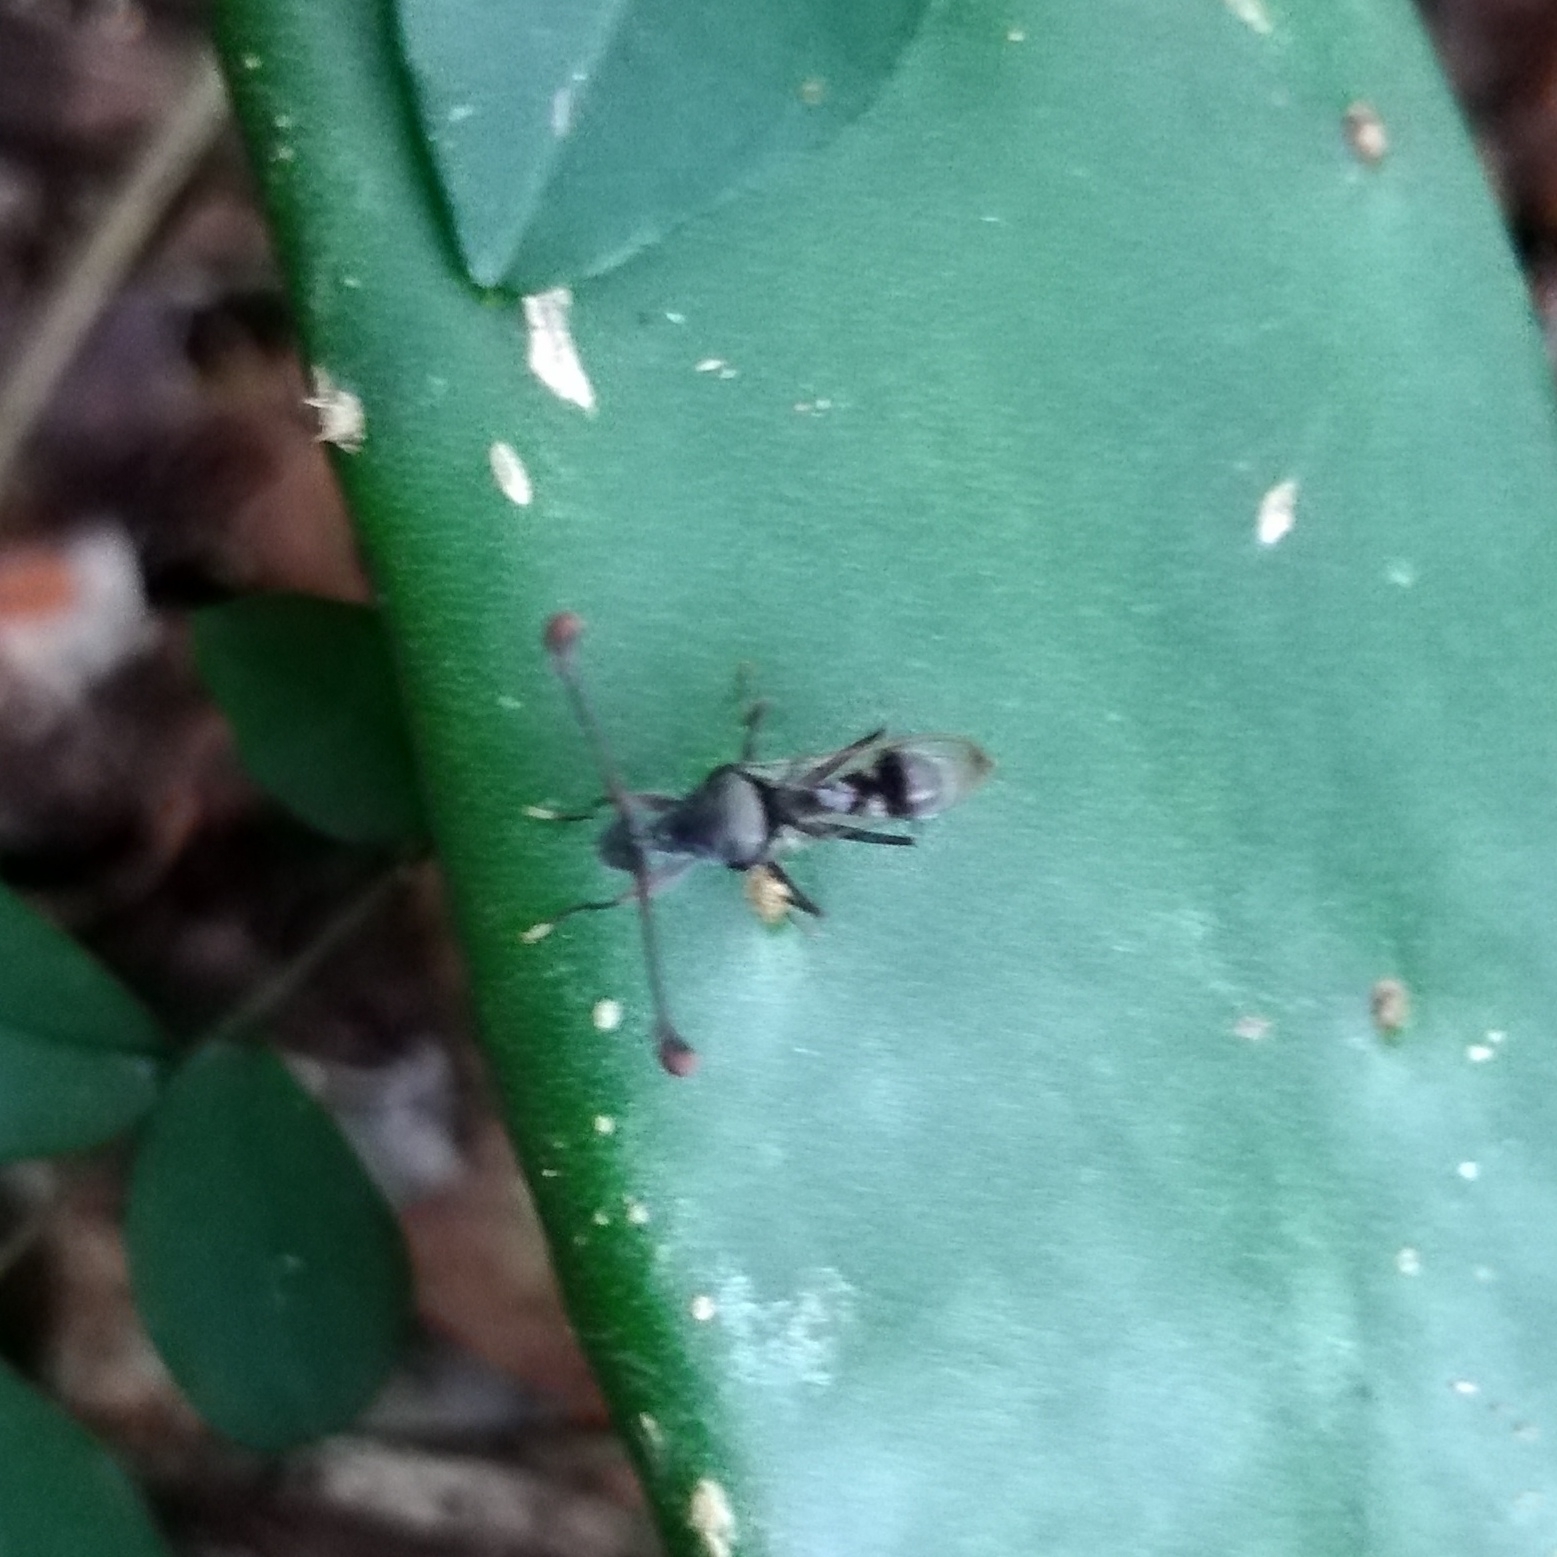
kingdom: Animalia
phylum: Arthropoda
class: Insecta
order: Diptera
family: Diopsidae
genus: Chaetodiopsis
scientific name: Chaetodiopsis
